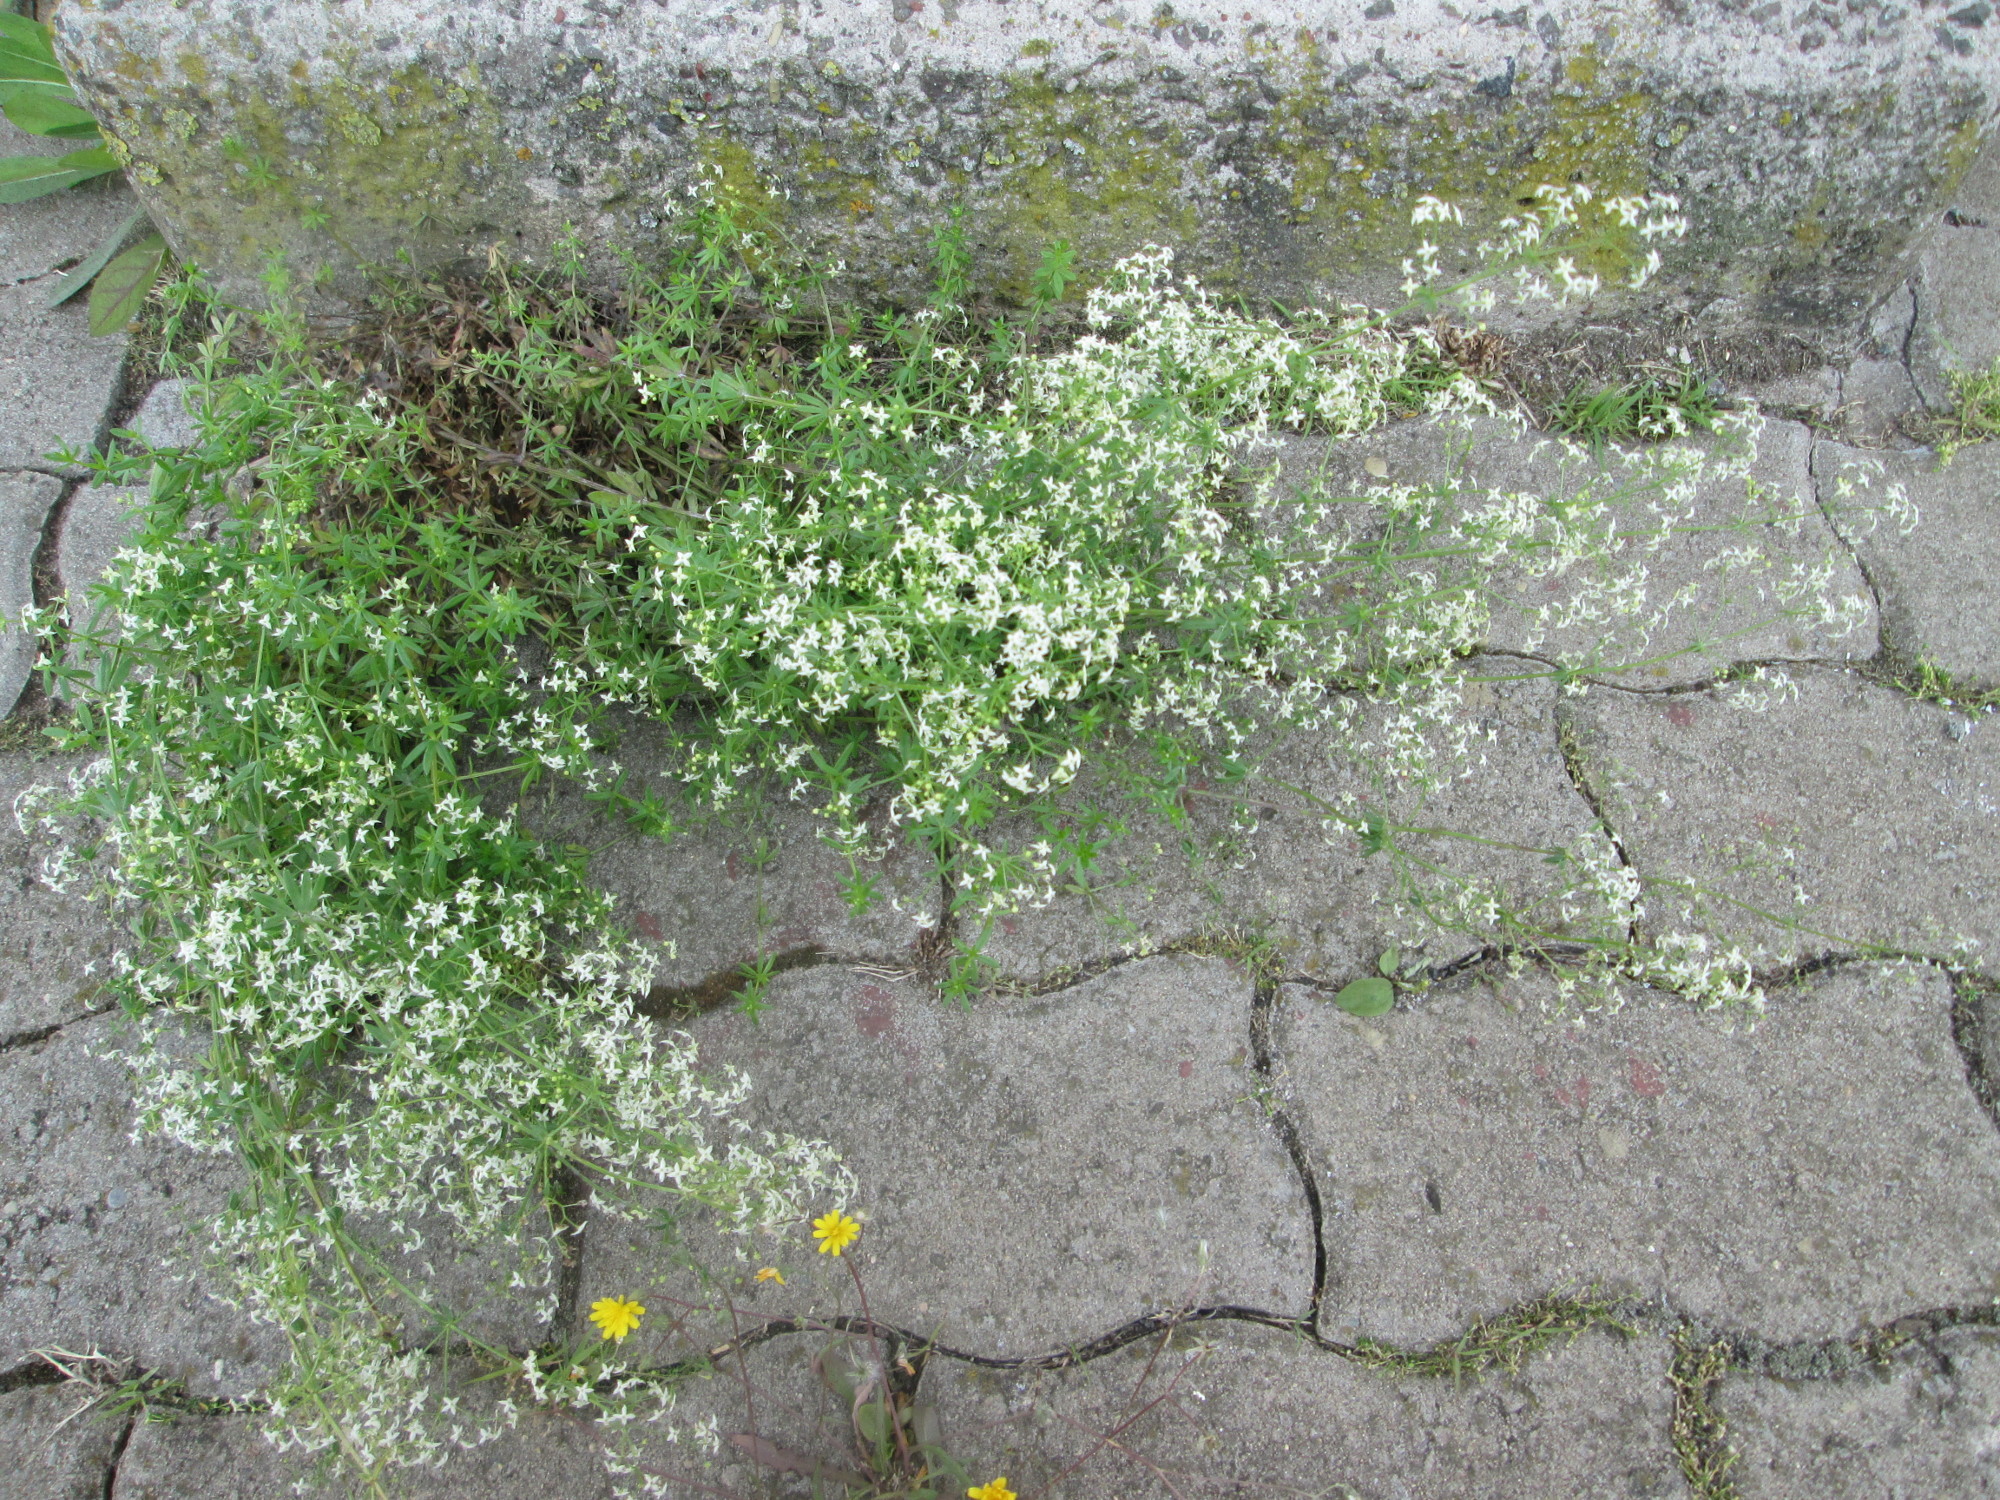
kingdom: Plantae
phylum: Tracheophyta
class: Magnoliopsida
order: Gentianales
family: Rubiaceae
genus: Galium
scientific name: Galium mollugo
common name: Hedge bedstraw
